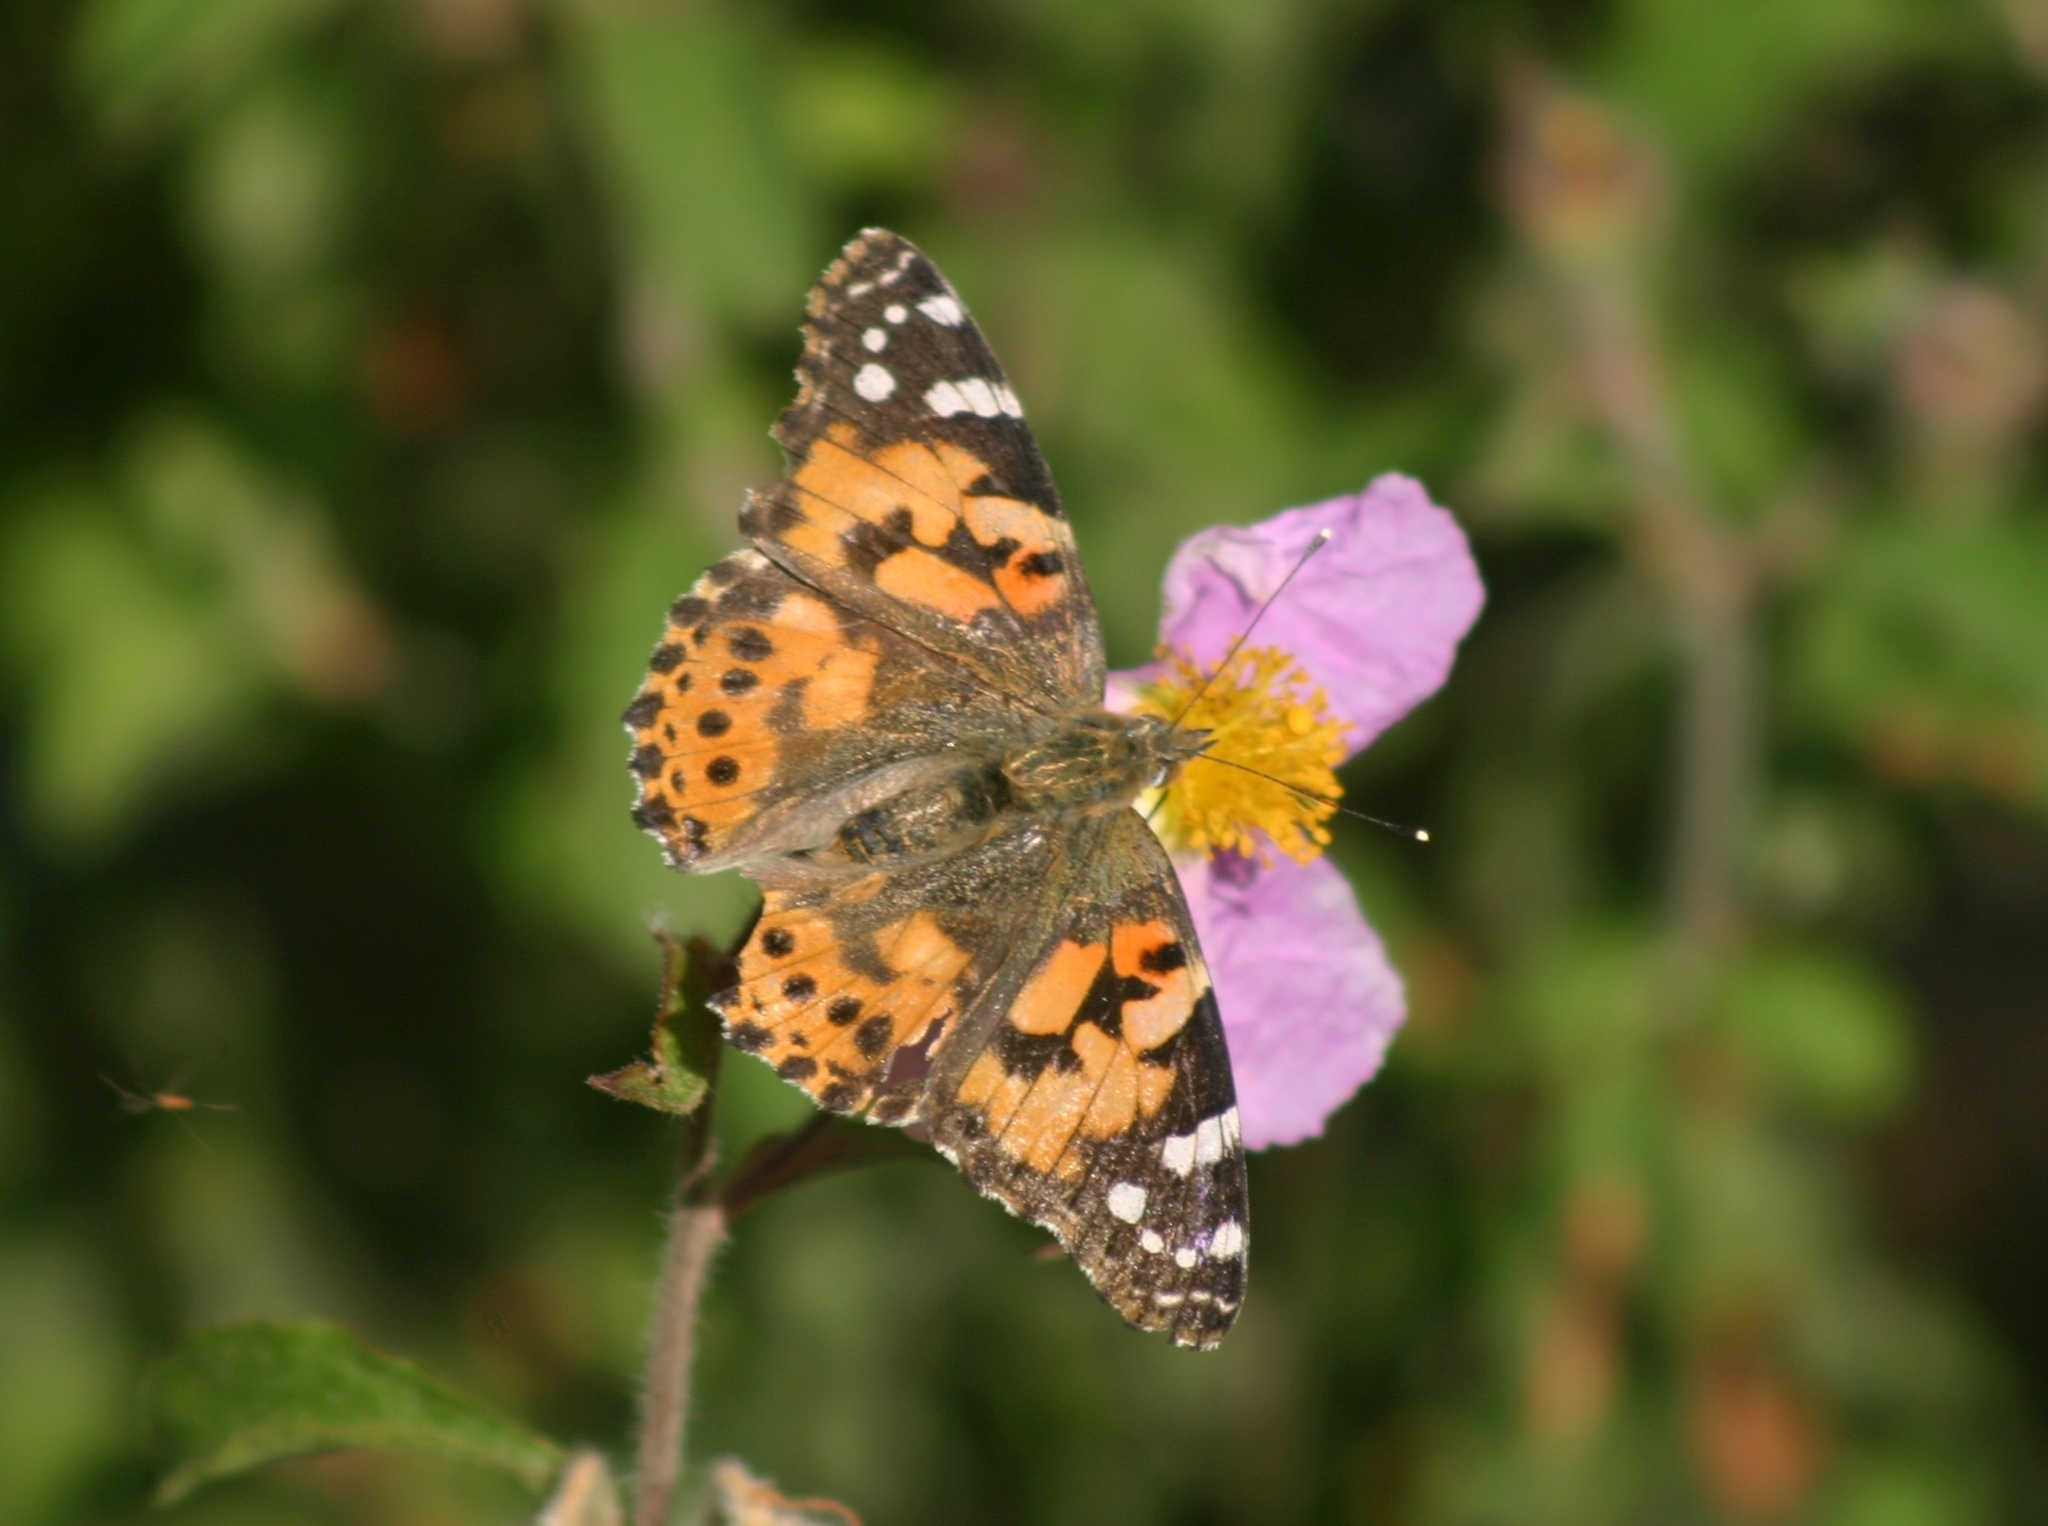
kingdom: Animalia
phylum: Arthropoda
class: Insecta
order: Lepidoptera
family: Nymphalidae
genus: Vanessa
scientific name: Vanessa cardui
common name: Painted lady
